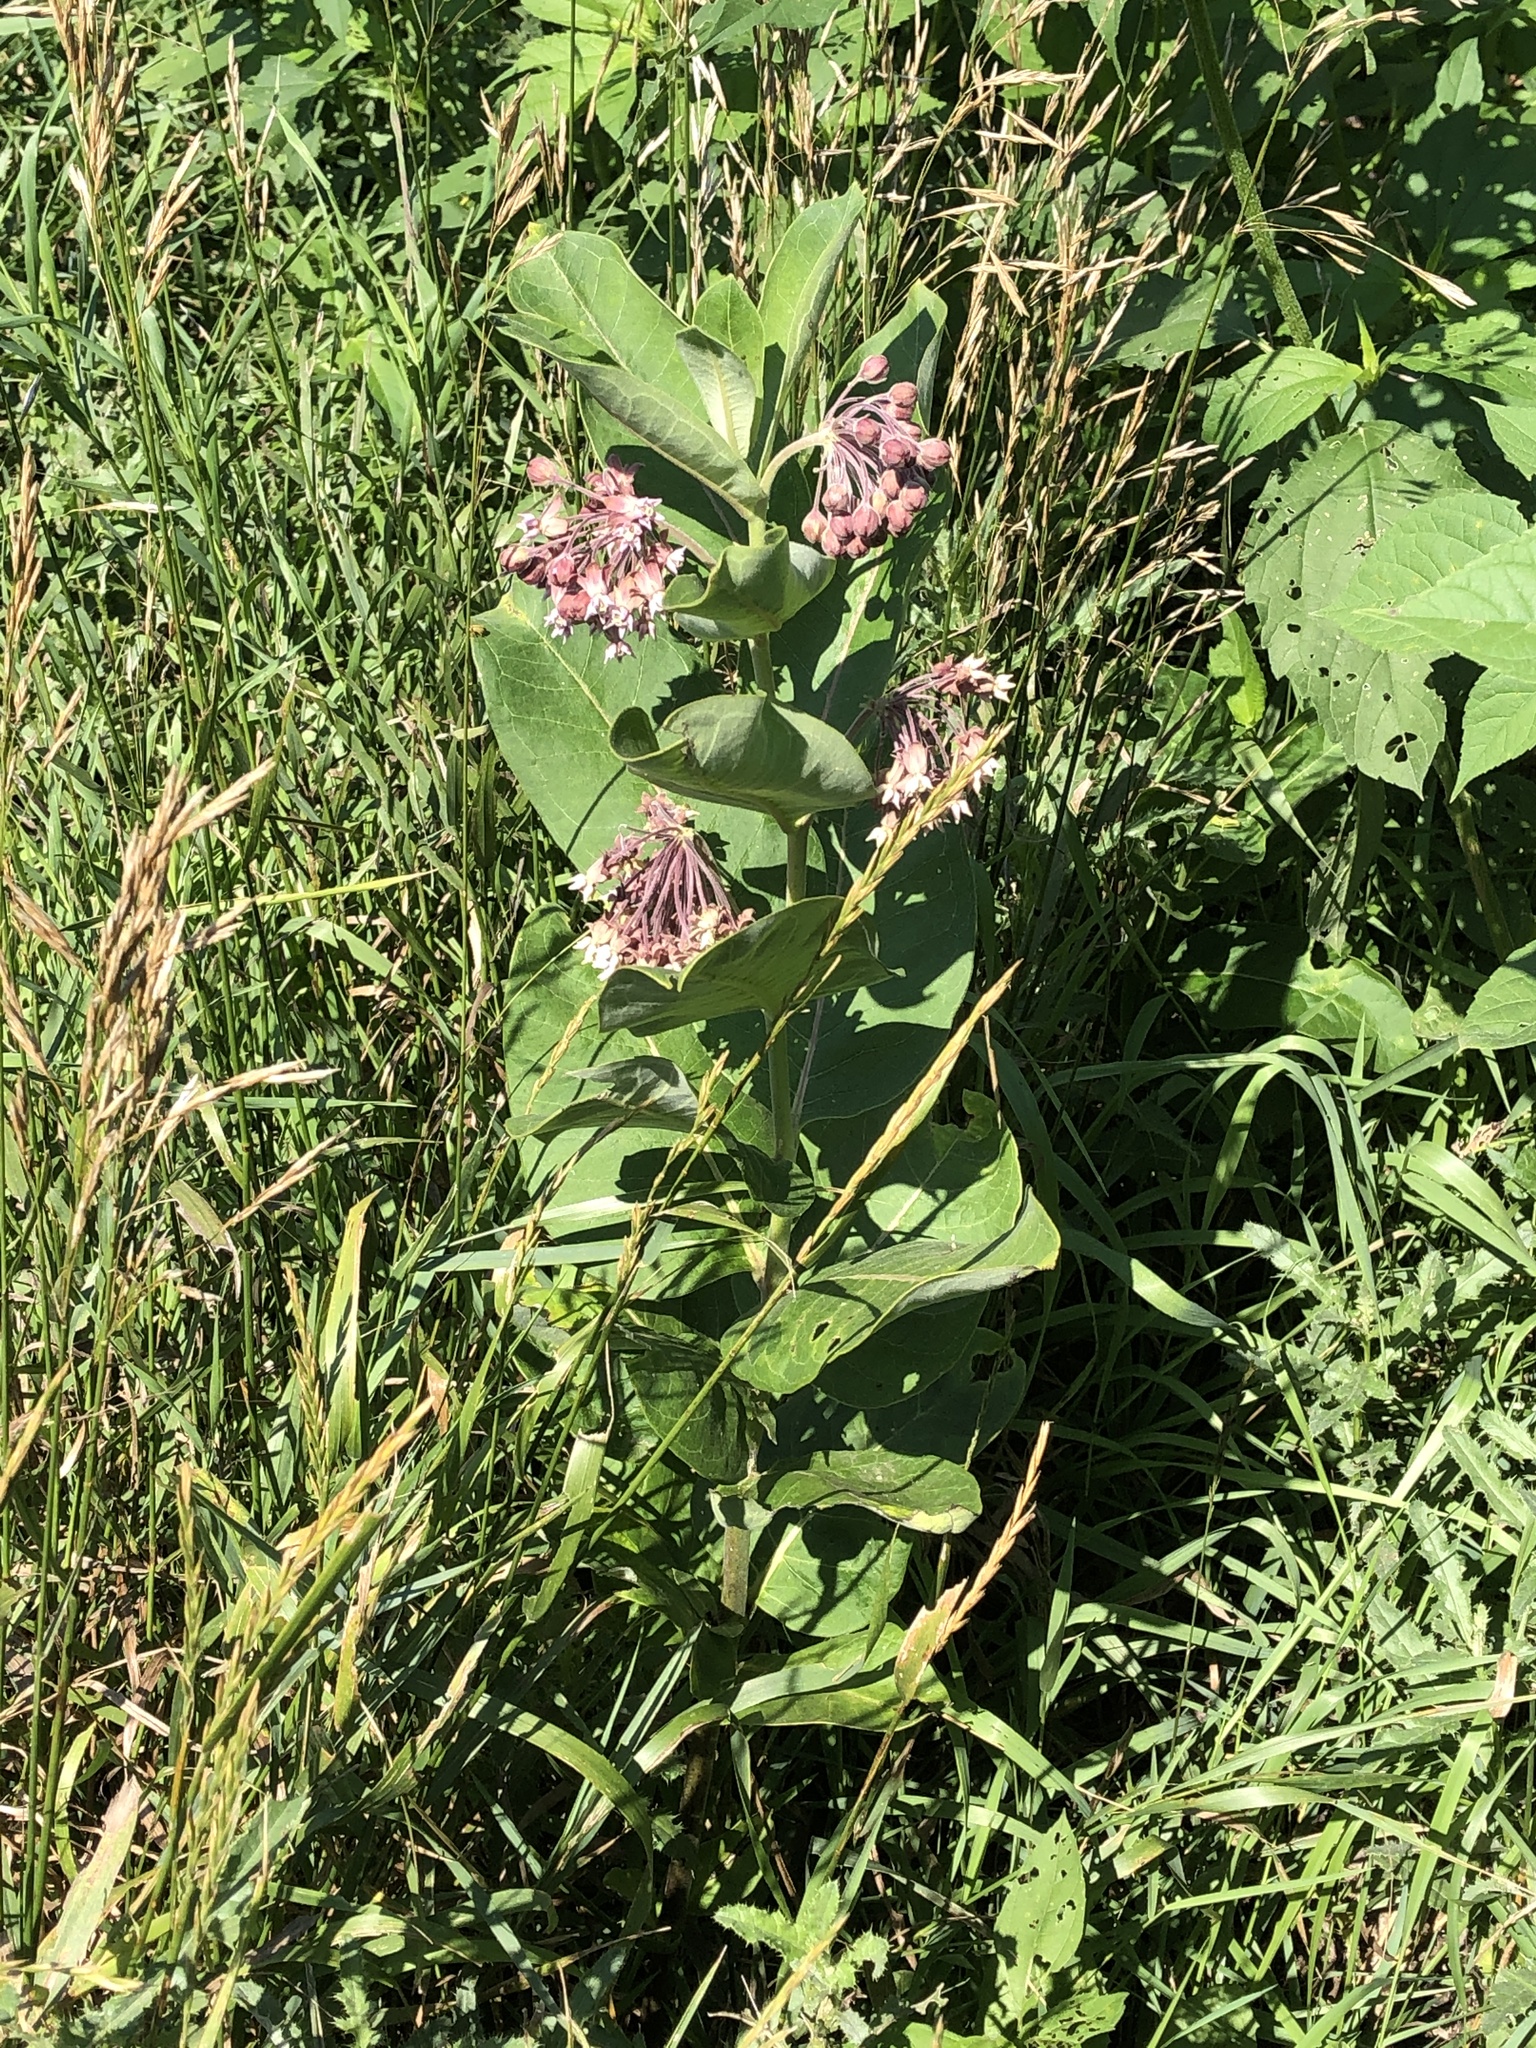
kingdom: Plantae
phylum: Tracheophyta
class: Magnoliopsida
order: Gentianales
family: Apocynaceae
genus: Asclepias
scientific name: Asclepias syriaca
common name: Common milkweed
